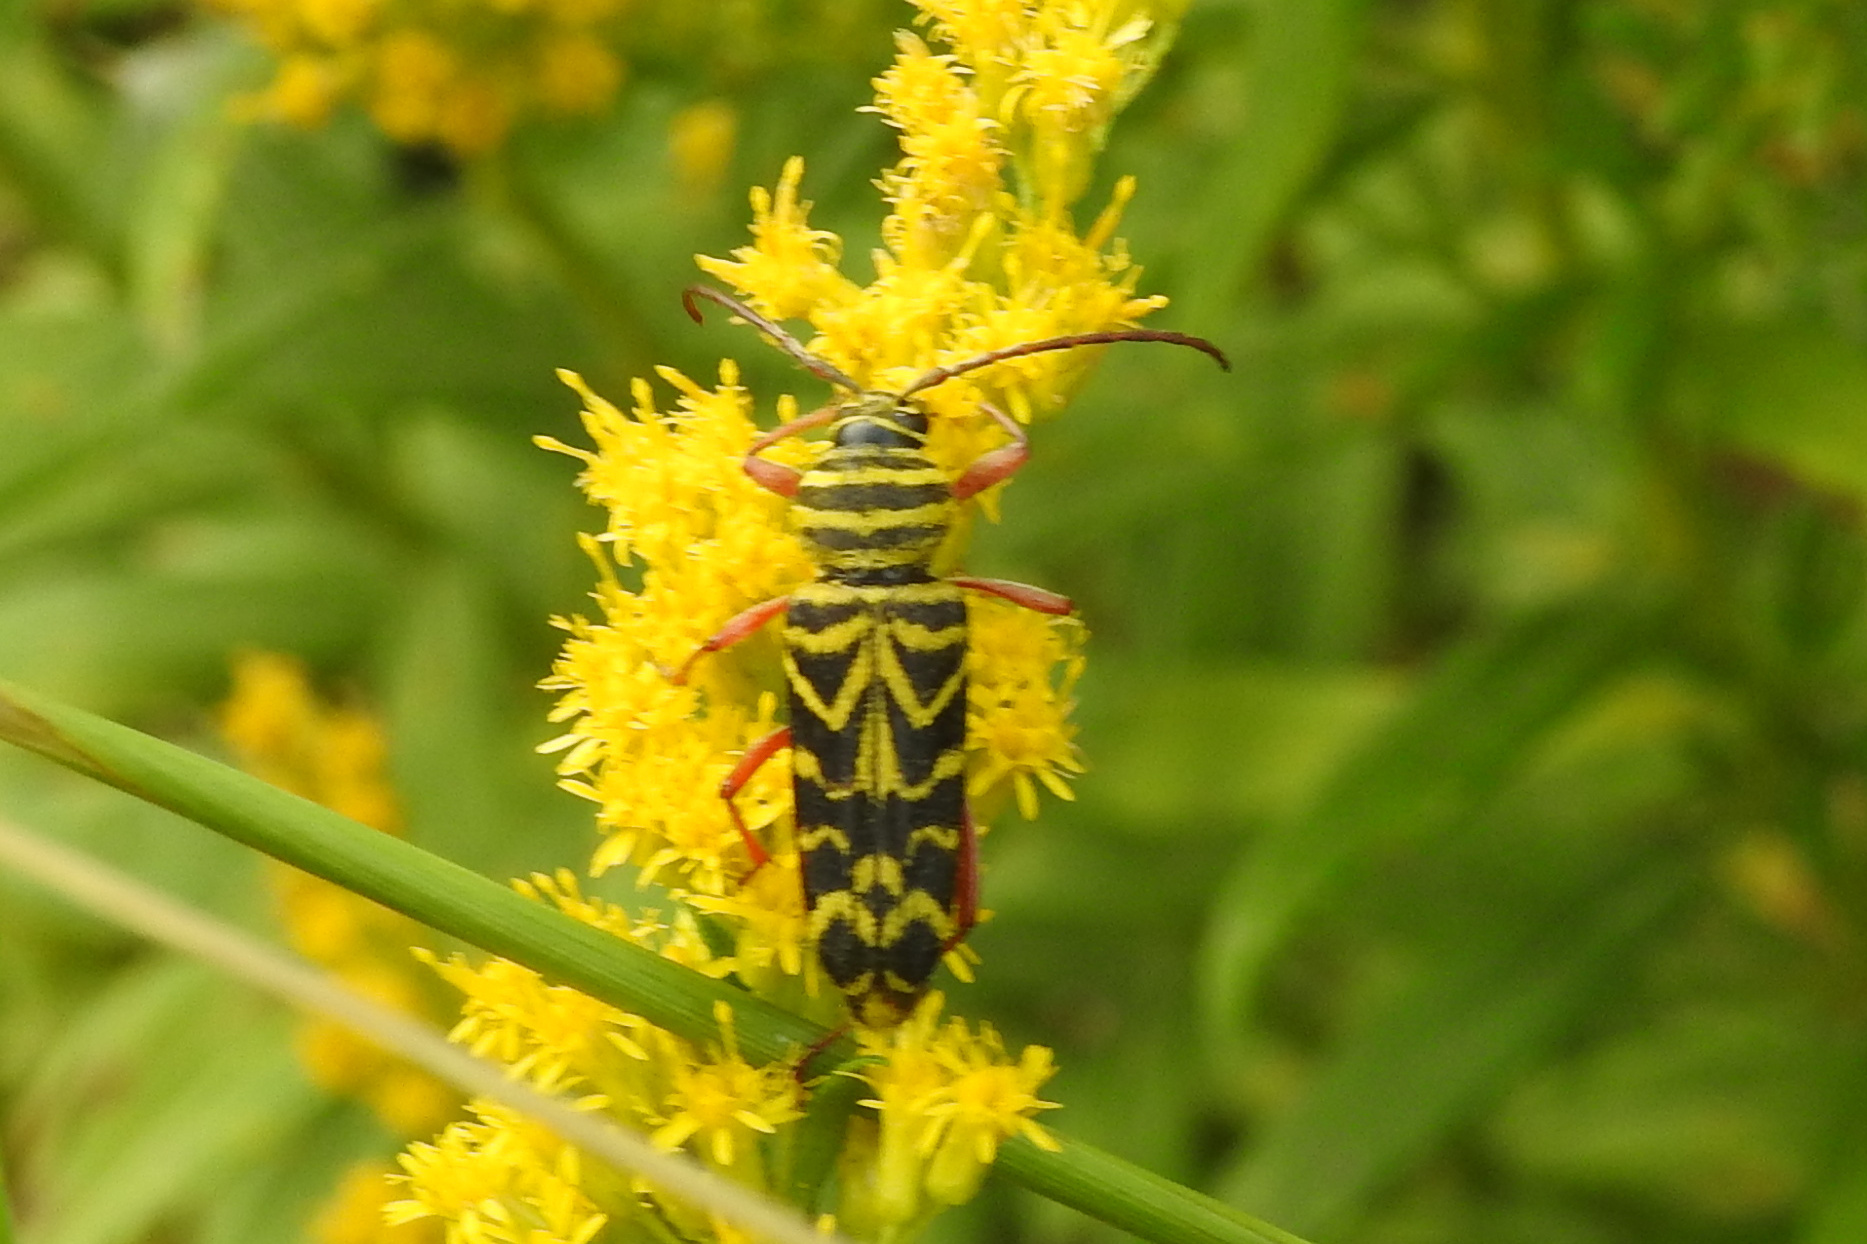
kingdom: Animalia
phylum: Arthropoda
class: Insecta
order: Coleoptera
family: Cerambycidae
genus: Megacyllene
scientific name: Megacyllene robiniae
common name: Locust borer
